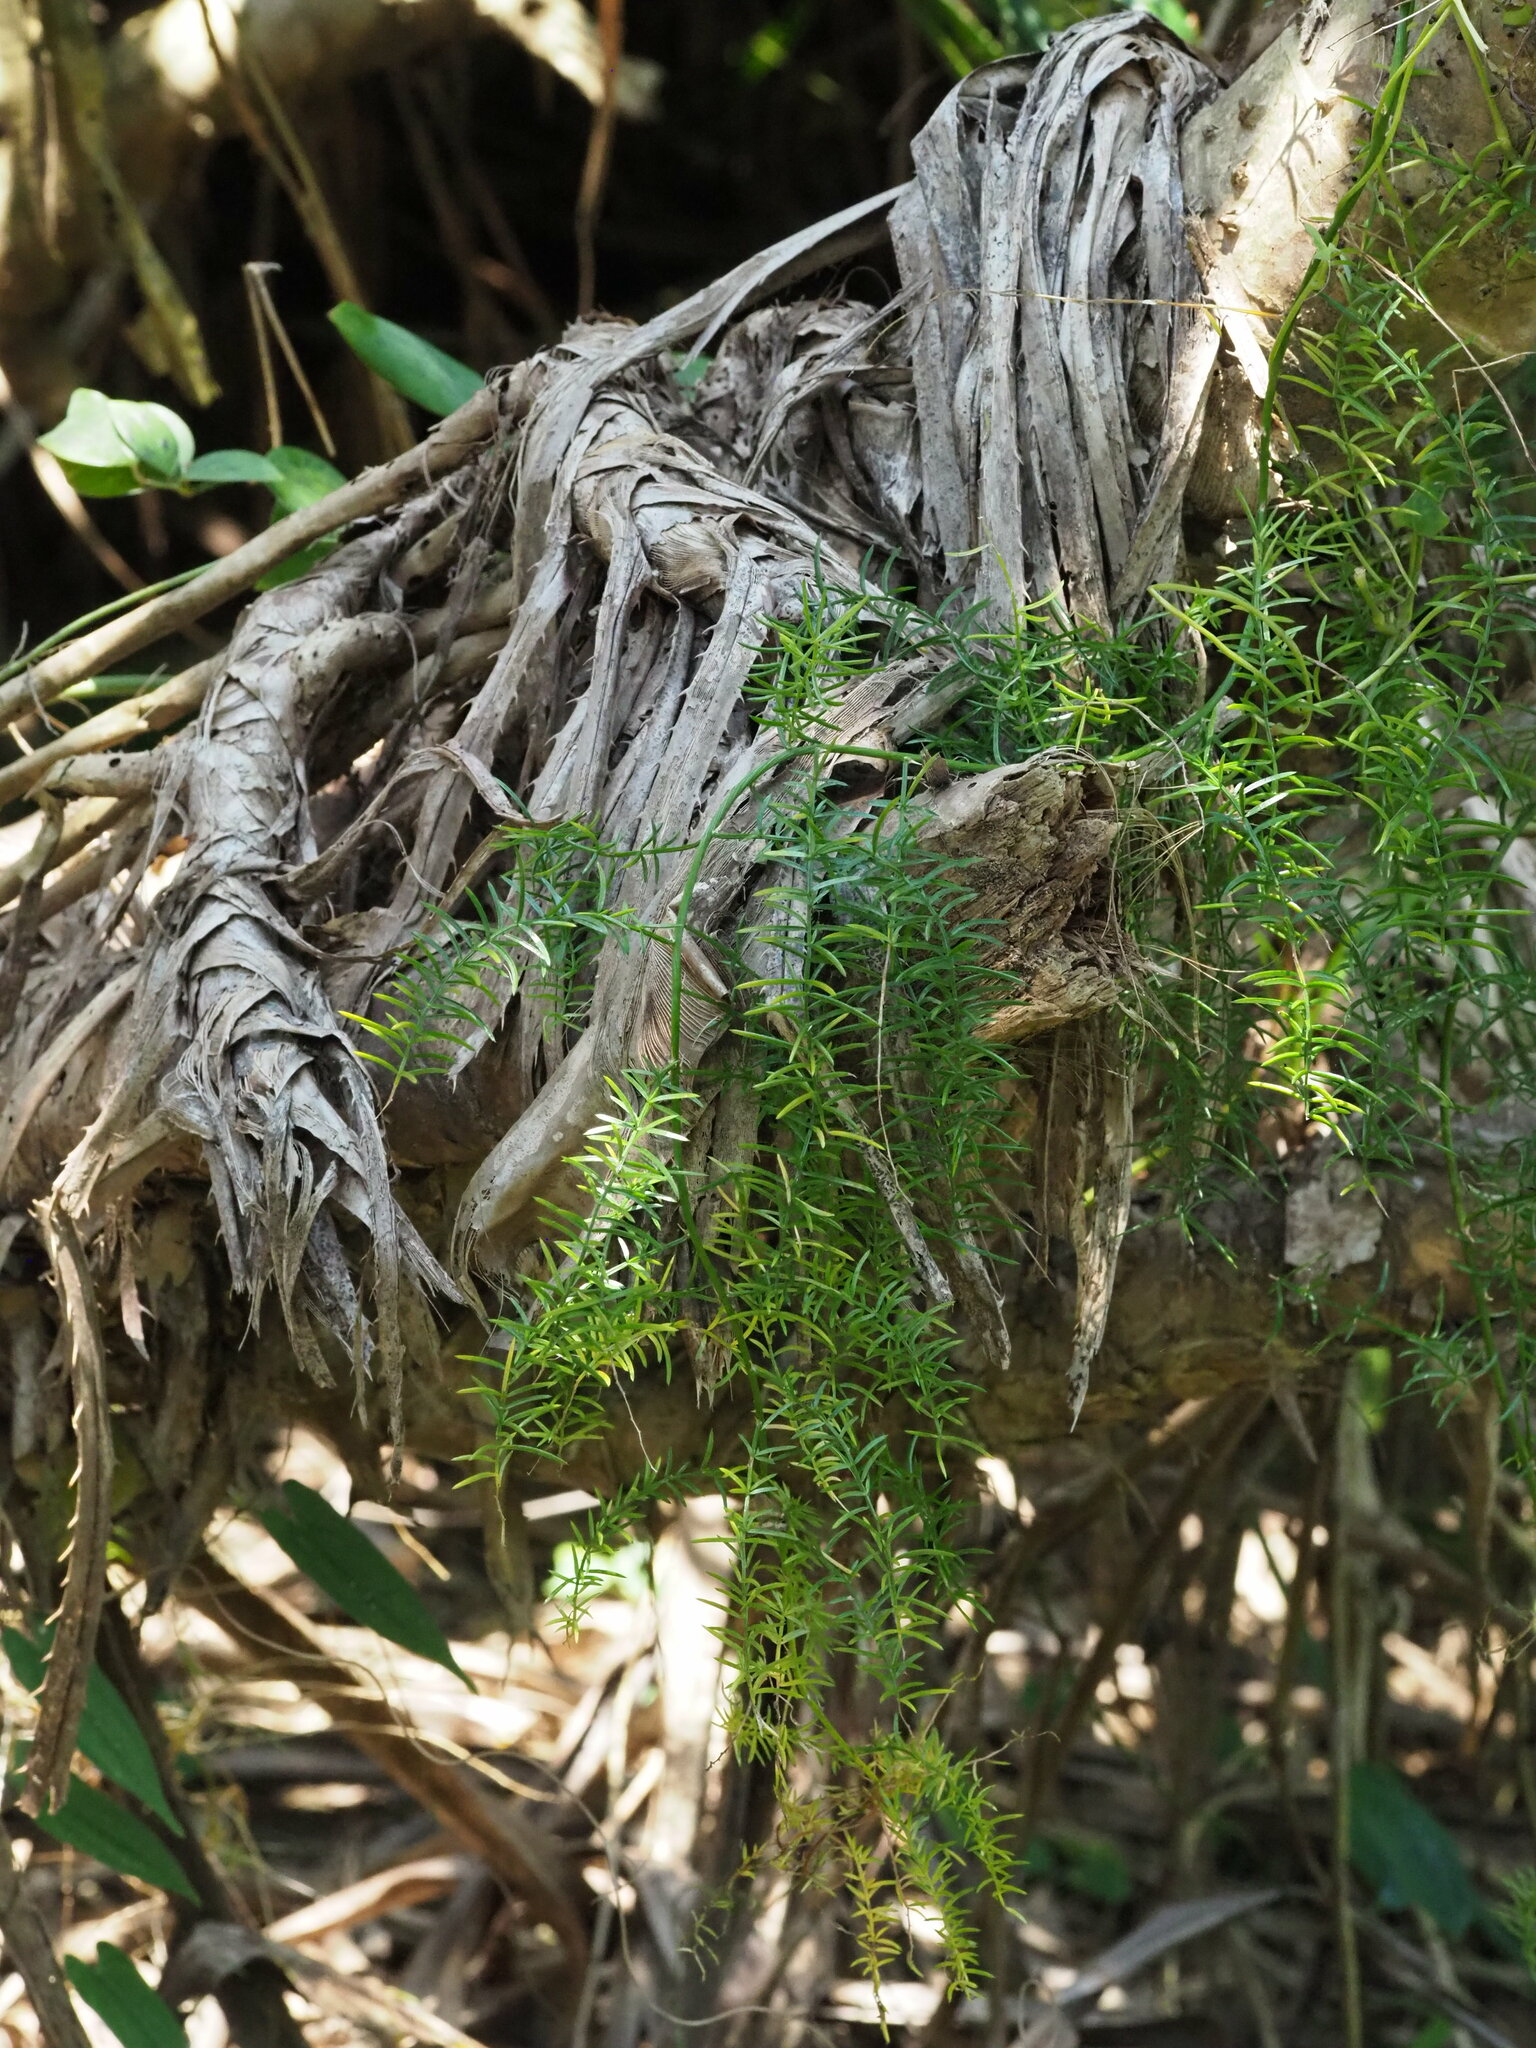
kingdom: Plantae
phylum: Tracheophyta
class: Liliopsida
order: Asparagales
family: Asparagaceae
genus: Asparagus
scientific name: Asparagus cochinchinensis
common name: Chinese asparagus
